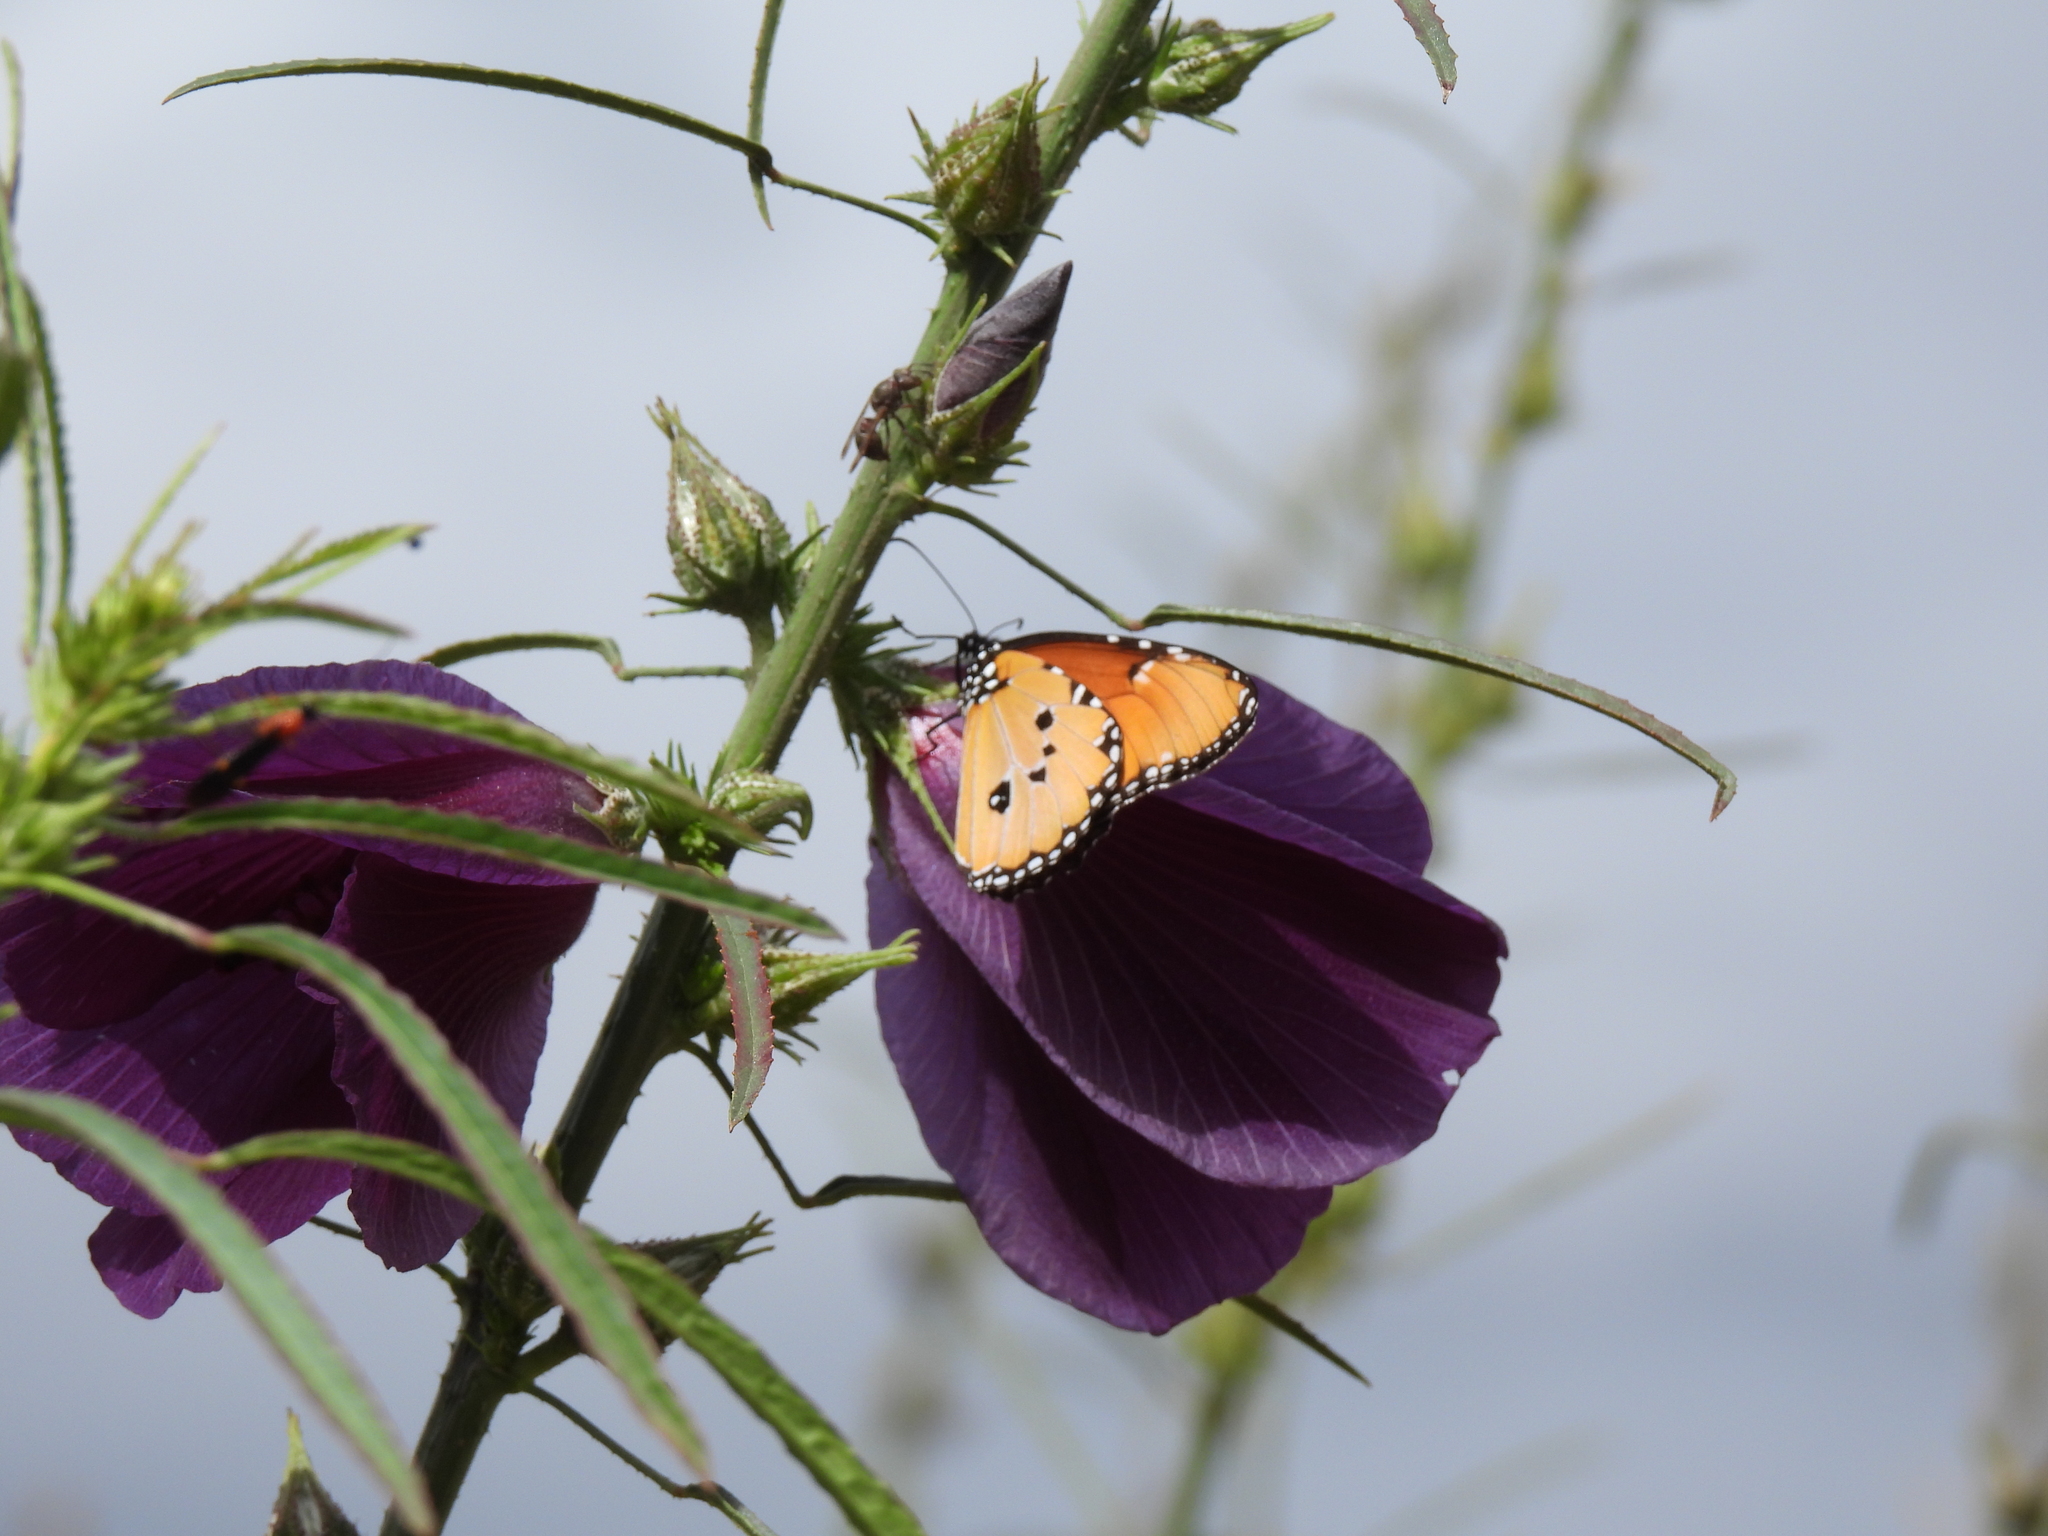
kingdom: Animalia
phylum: Arthropoda
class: Insecta
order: Lepidoptera
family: Nymphalidae
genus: Danaus
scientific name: Danaus chrysippus
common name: Plain tiger
